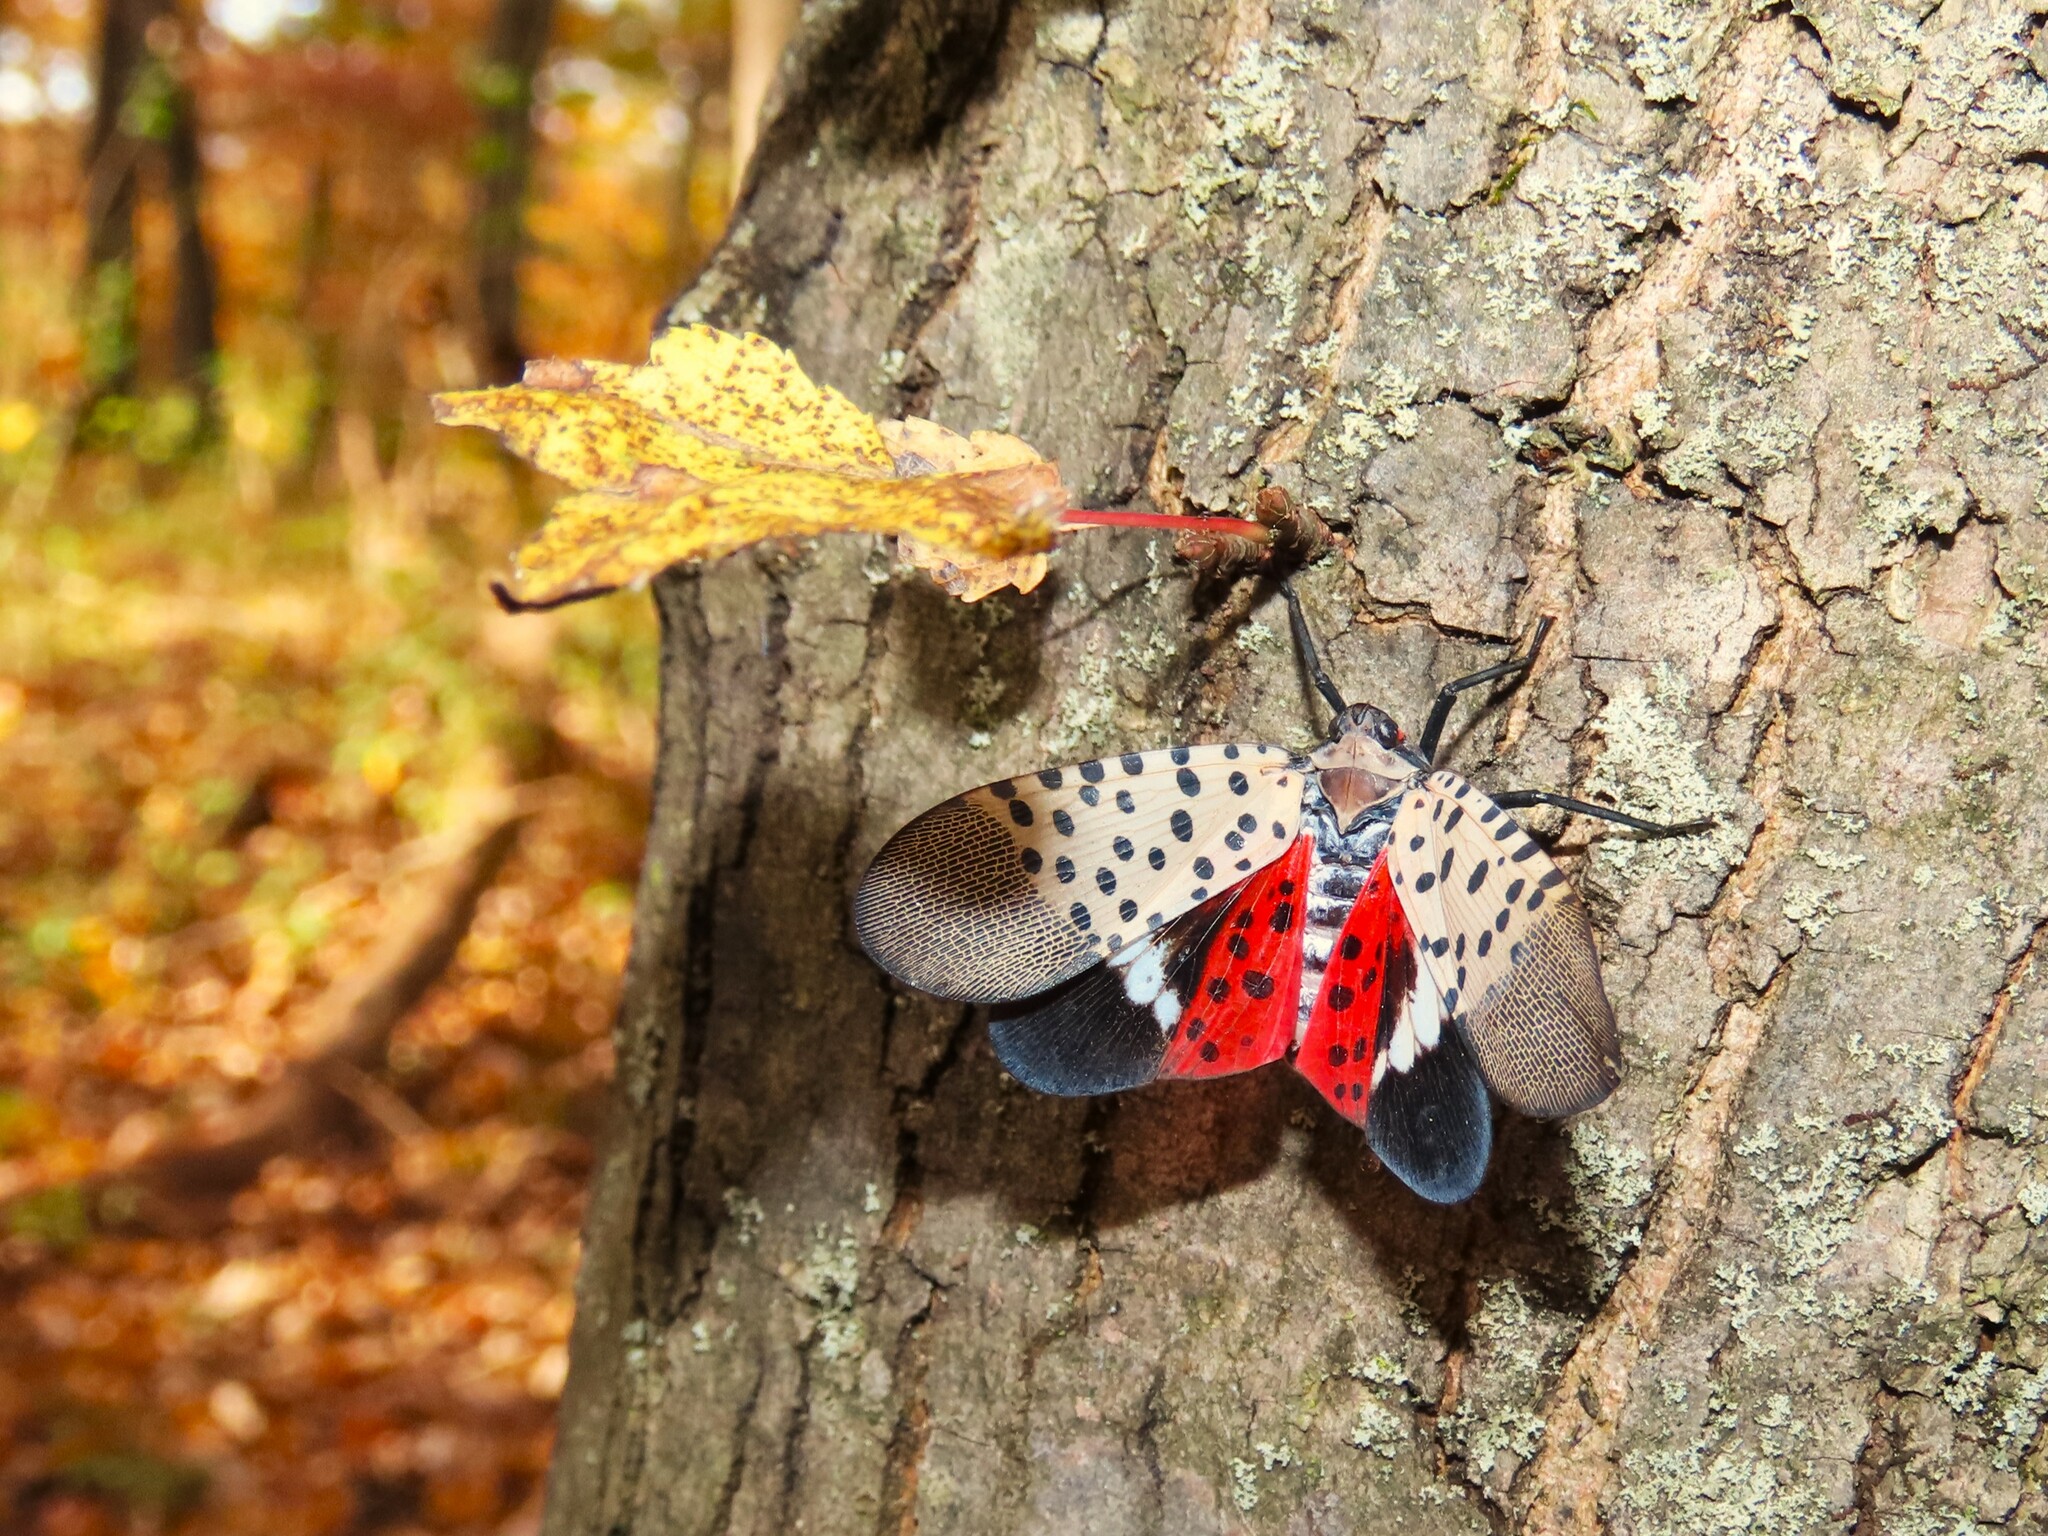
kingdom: Animalia
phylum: Arthropoda
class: Insecta
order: Hemiptera
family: Fulgoridae
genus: Lycorma
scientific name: Lycorma delicatula
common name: Spotted lanternfly
